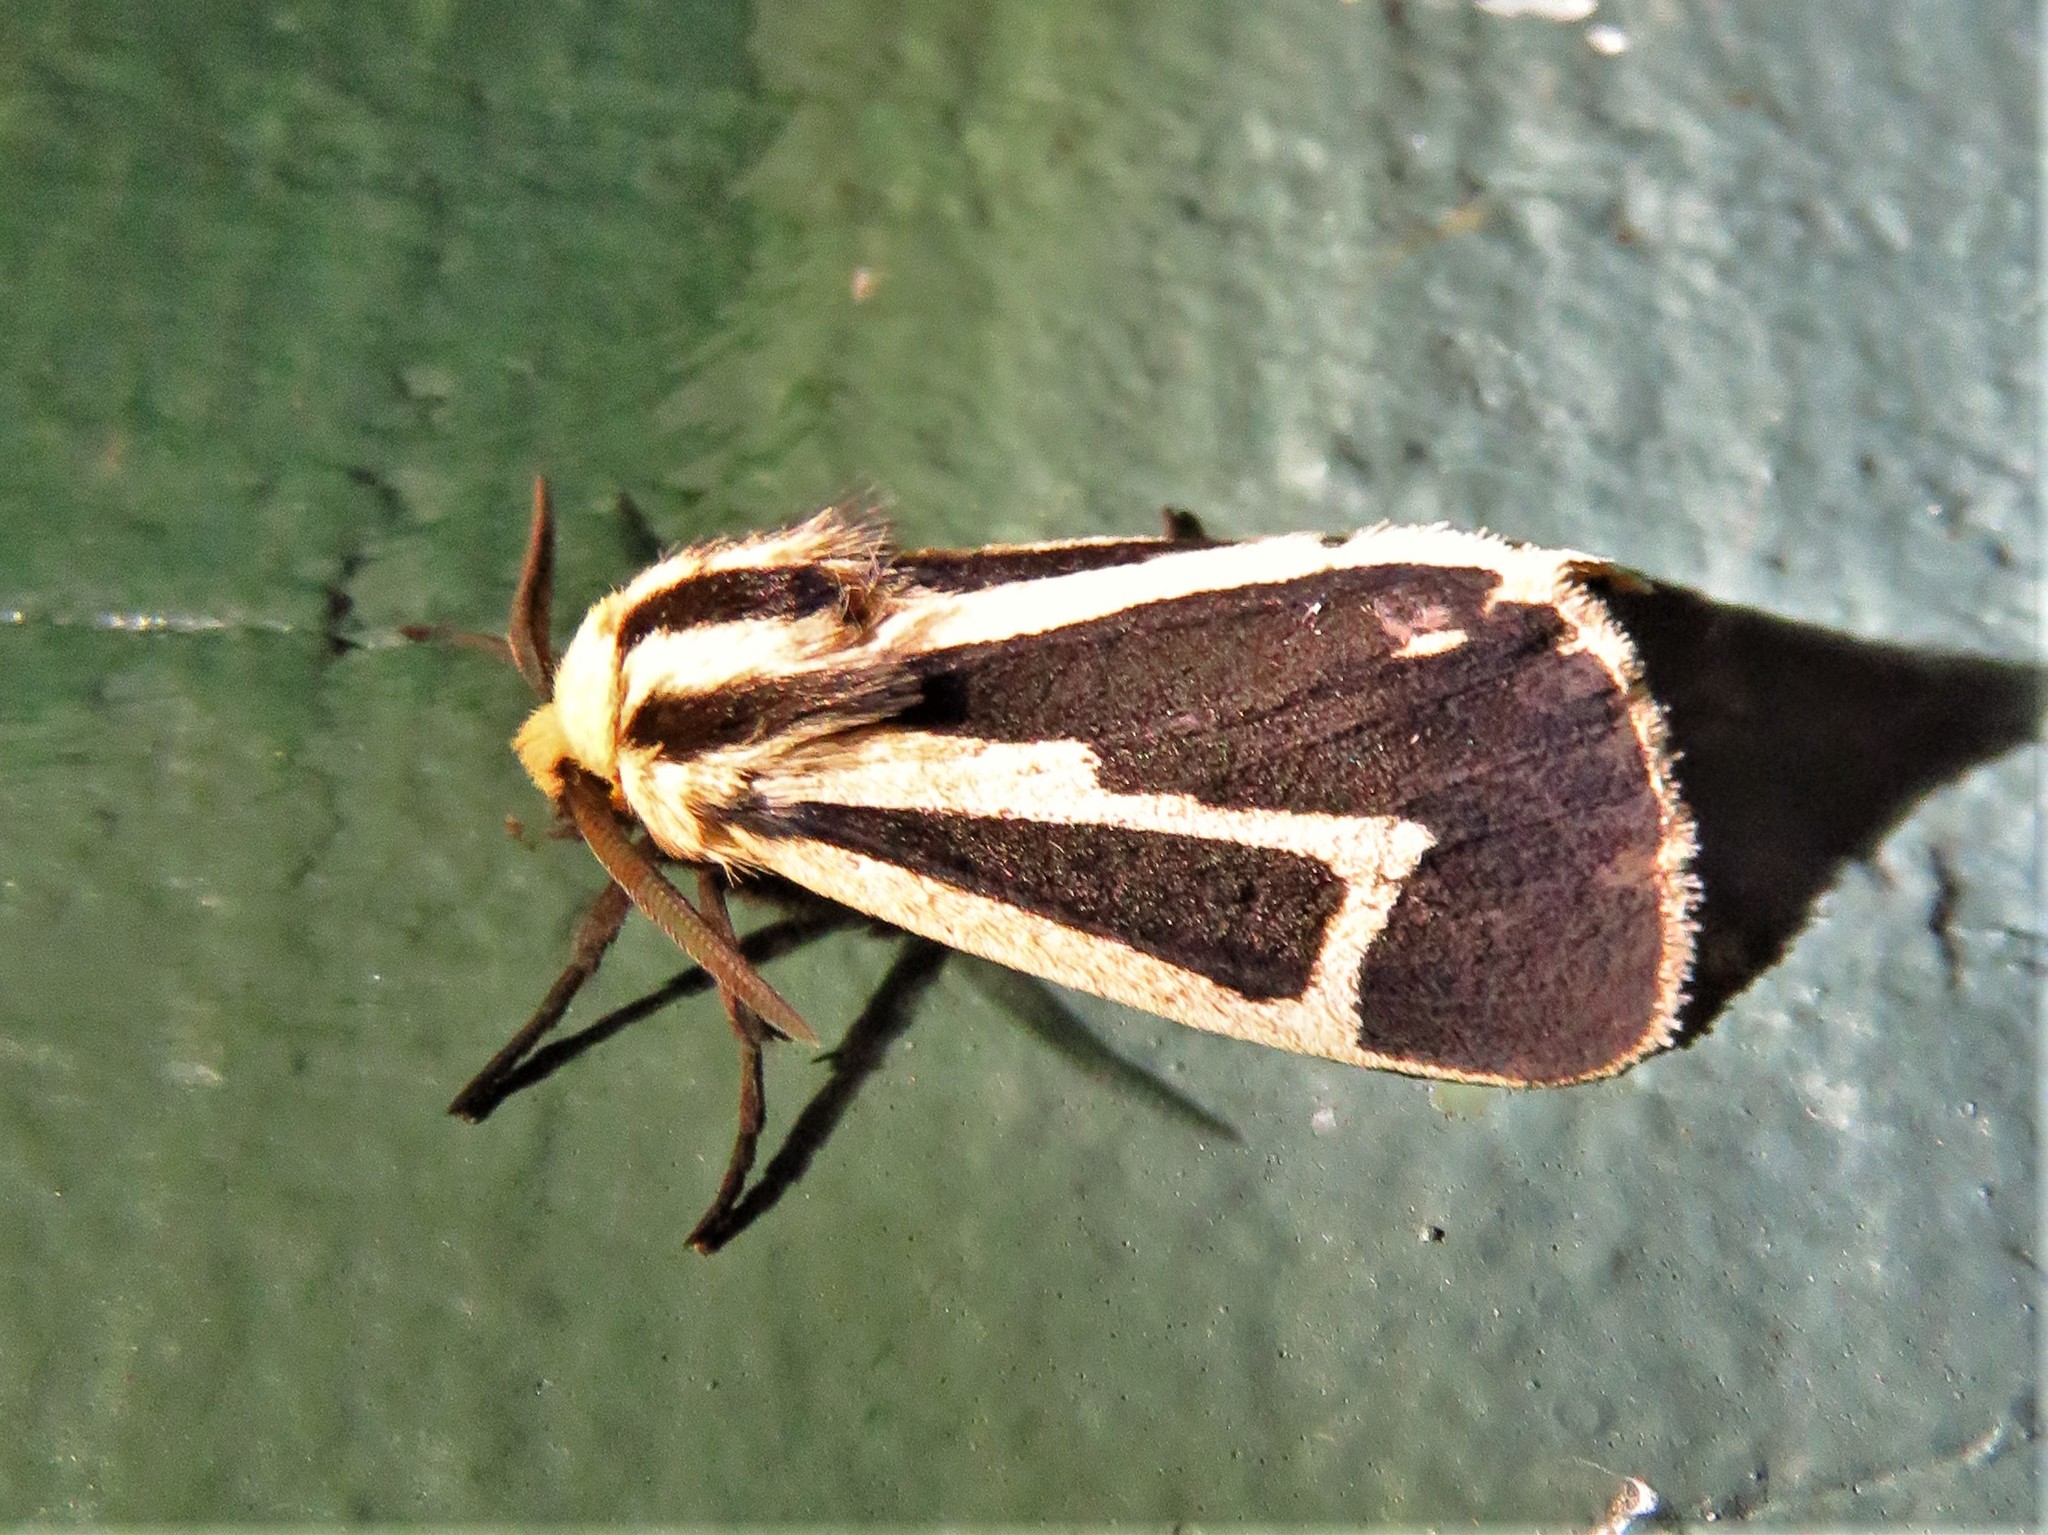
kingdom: Animalia
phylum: Arthropoda
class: Insecta
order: Lepidoptera
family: Erebidae
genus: Apantesis
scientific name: Apantesis vittata
